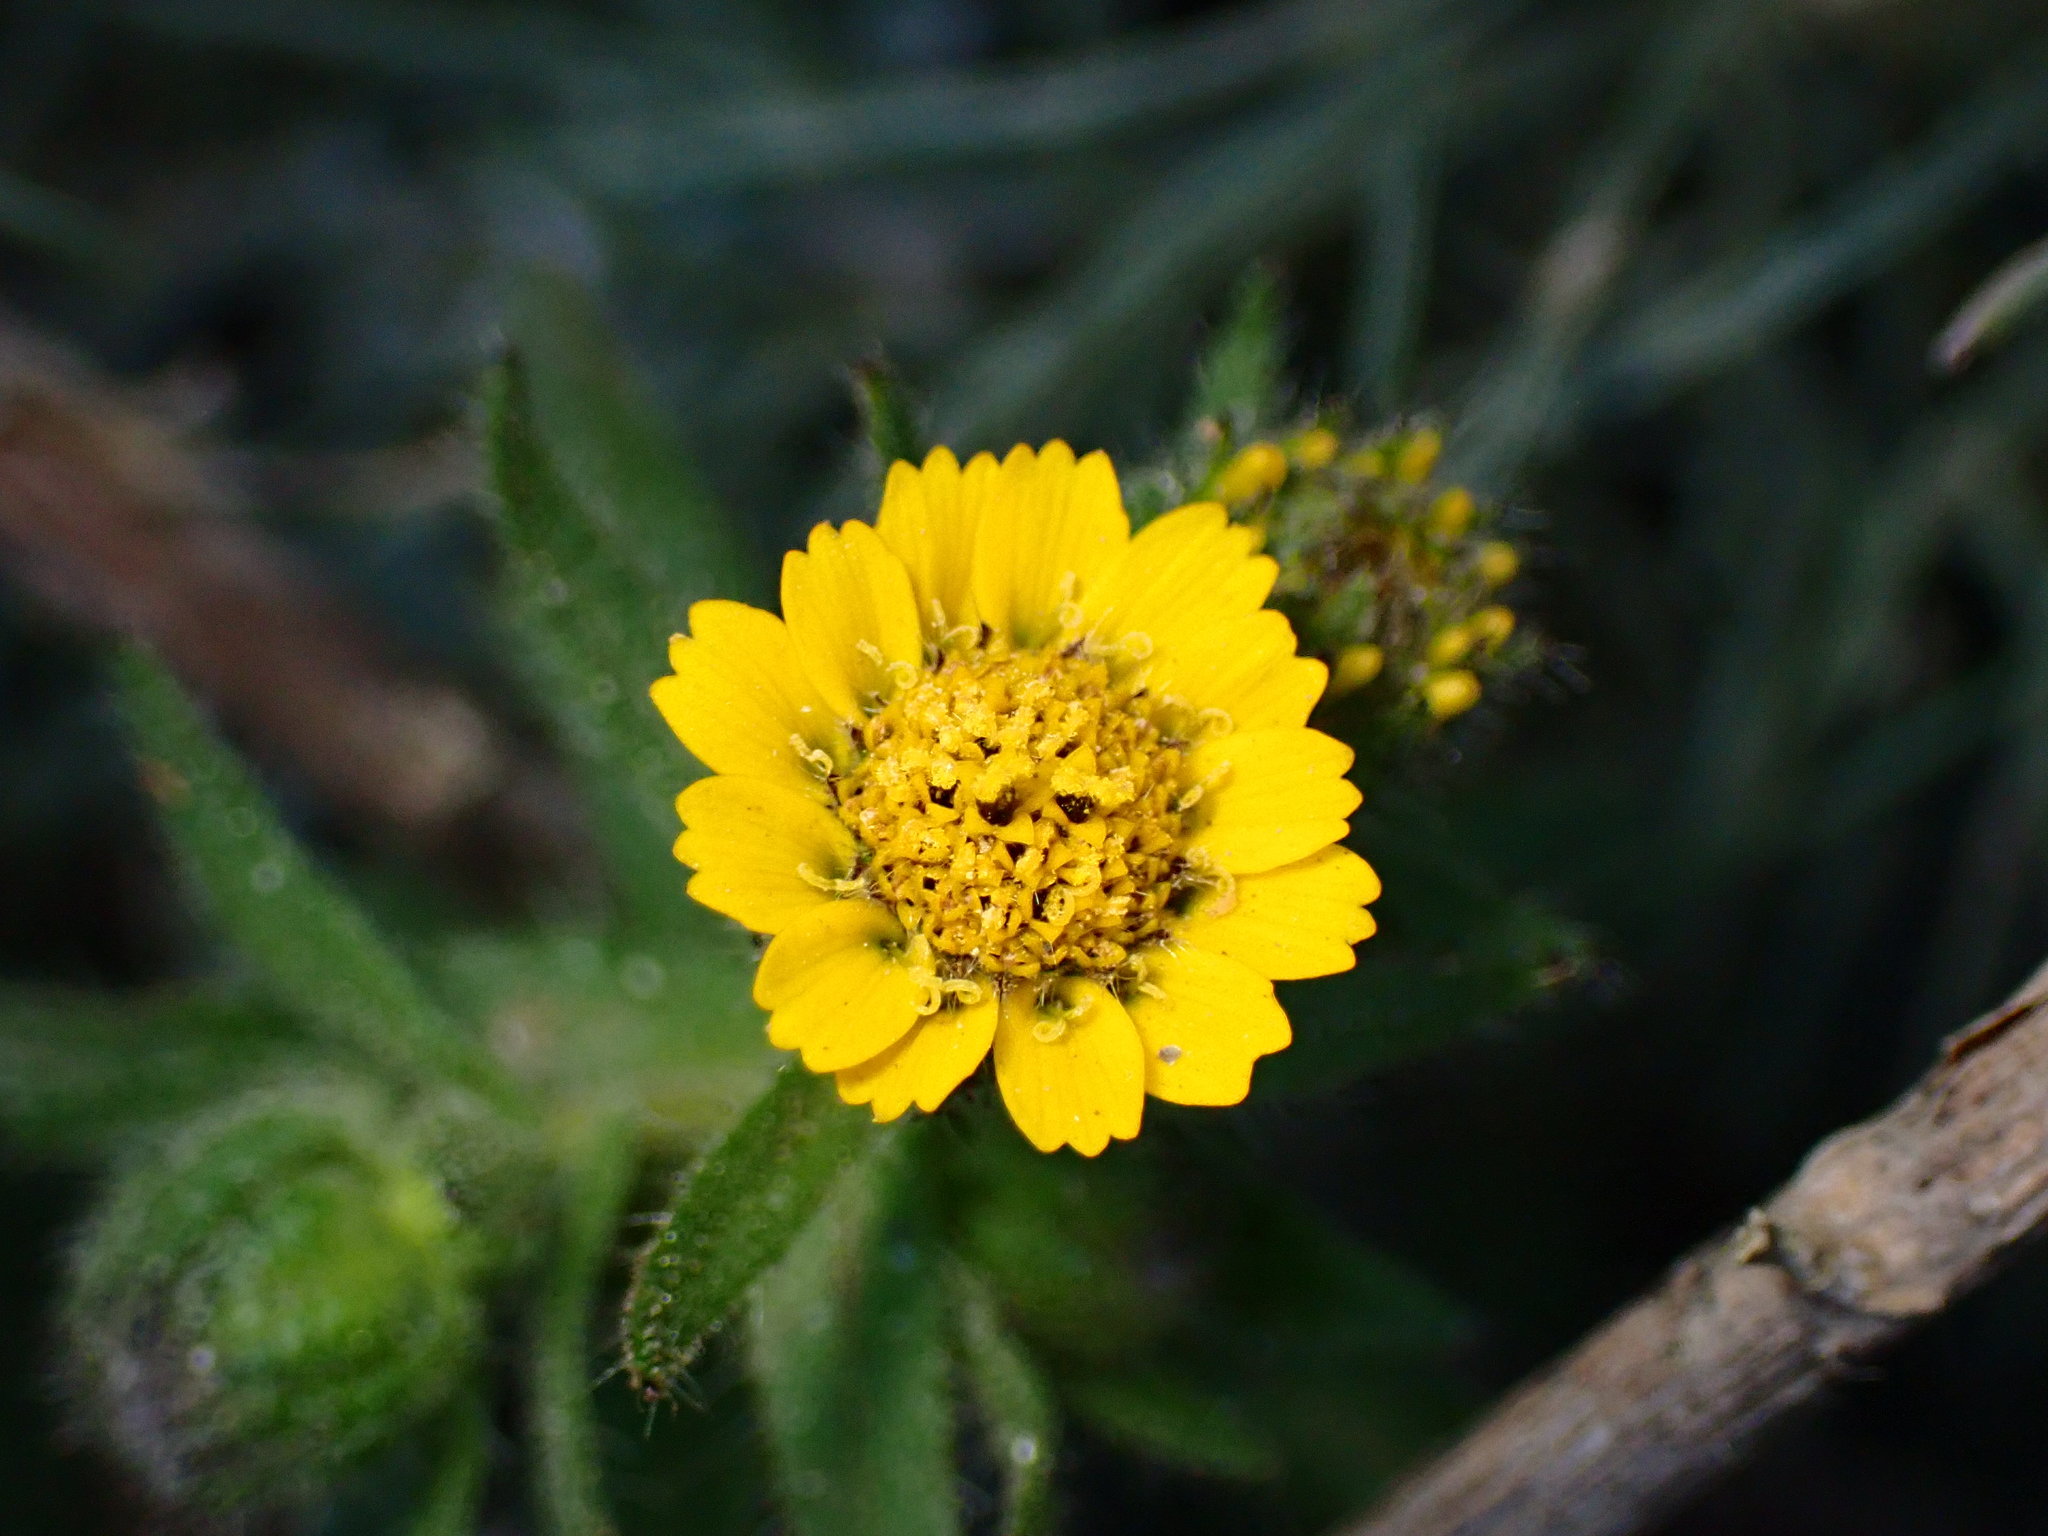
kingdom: Plantae
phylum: Tracheophyta
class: Magnoliopsida
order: Asterales
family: Asteraceae
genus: Layia
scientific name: Layia hieracioides
